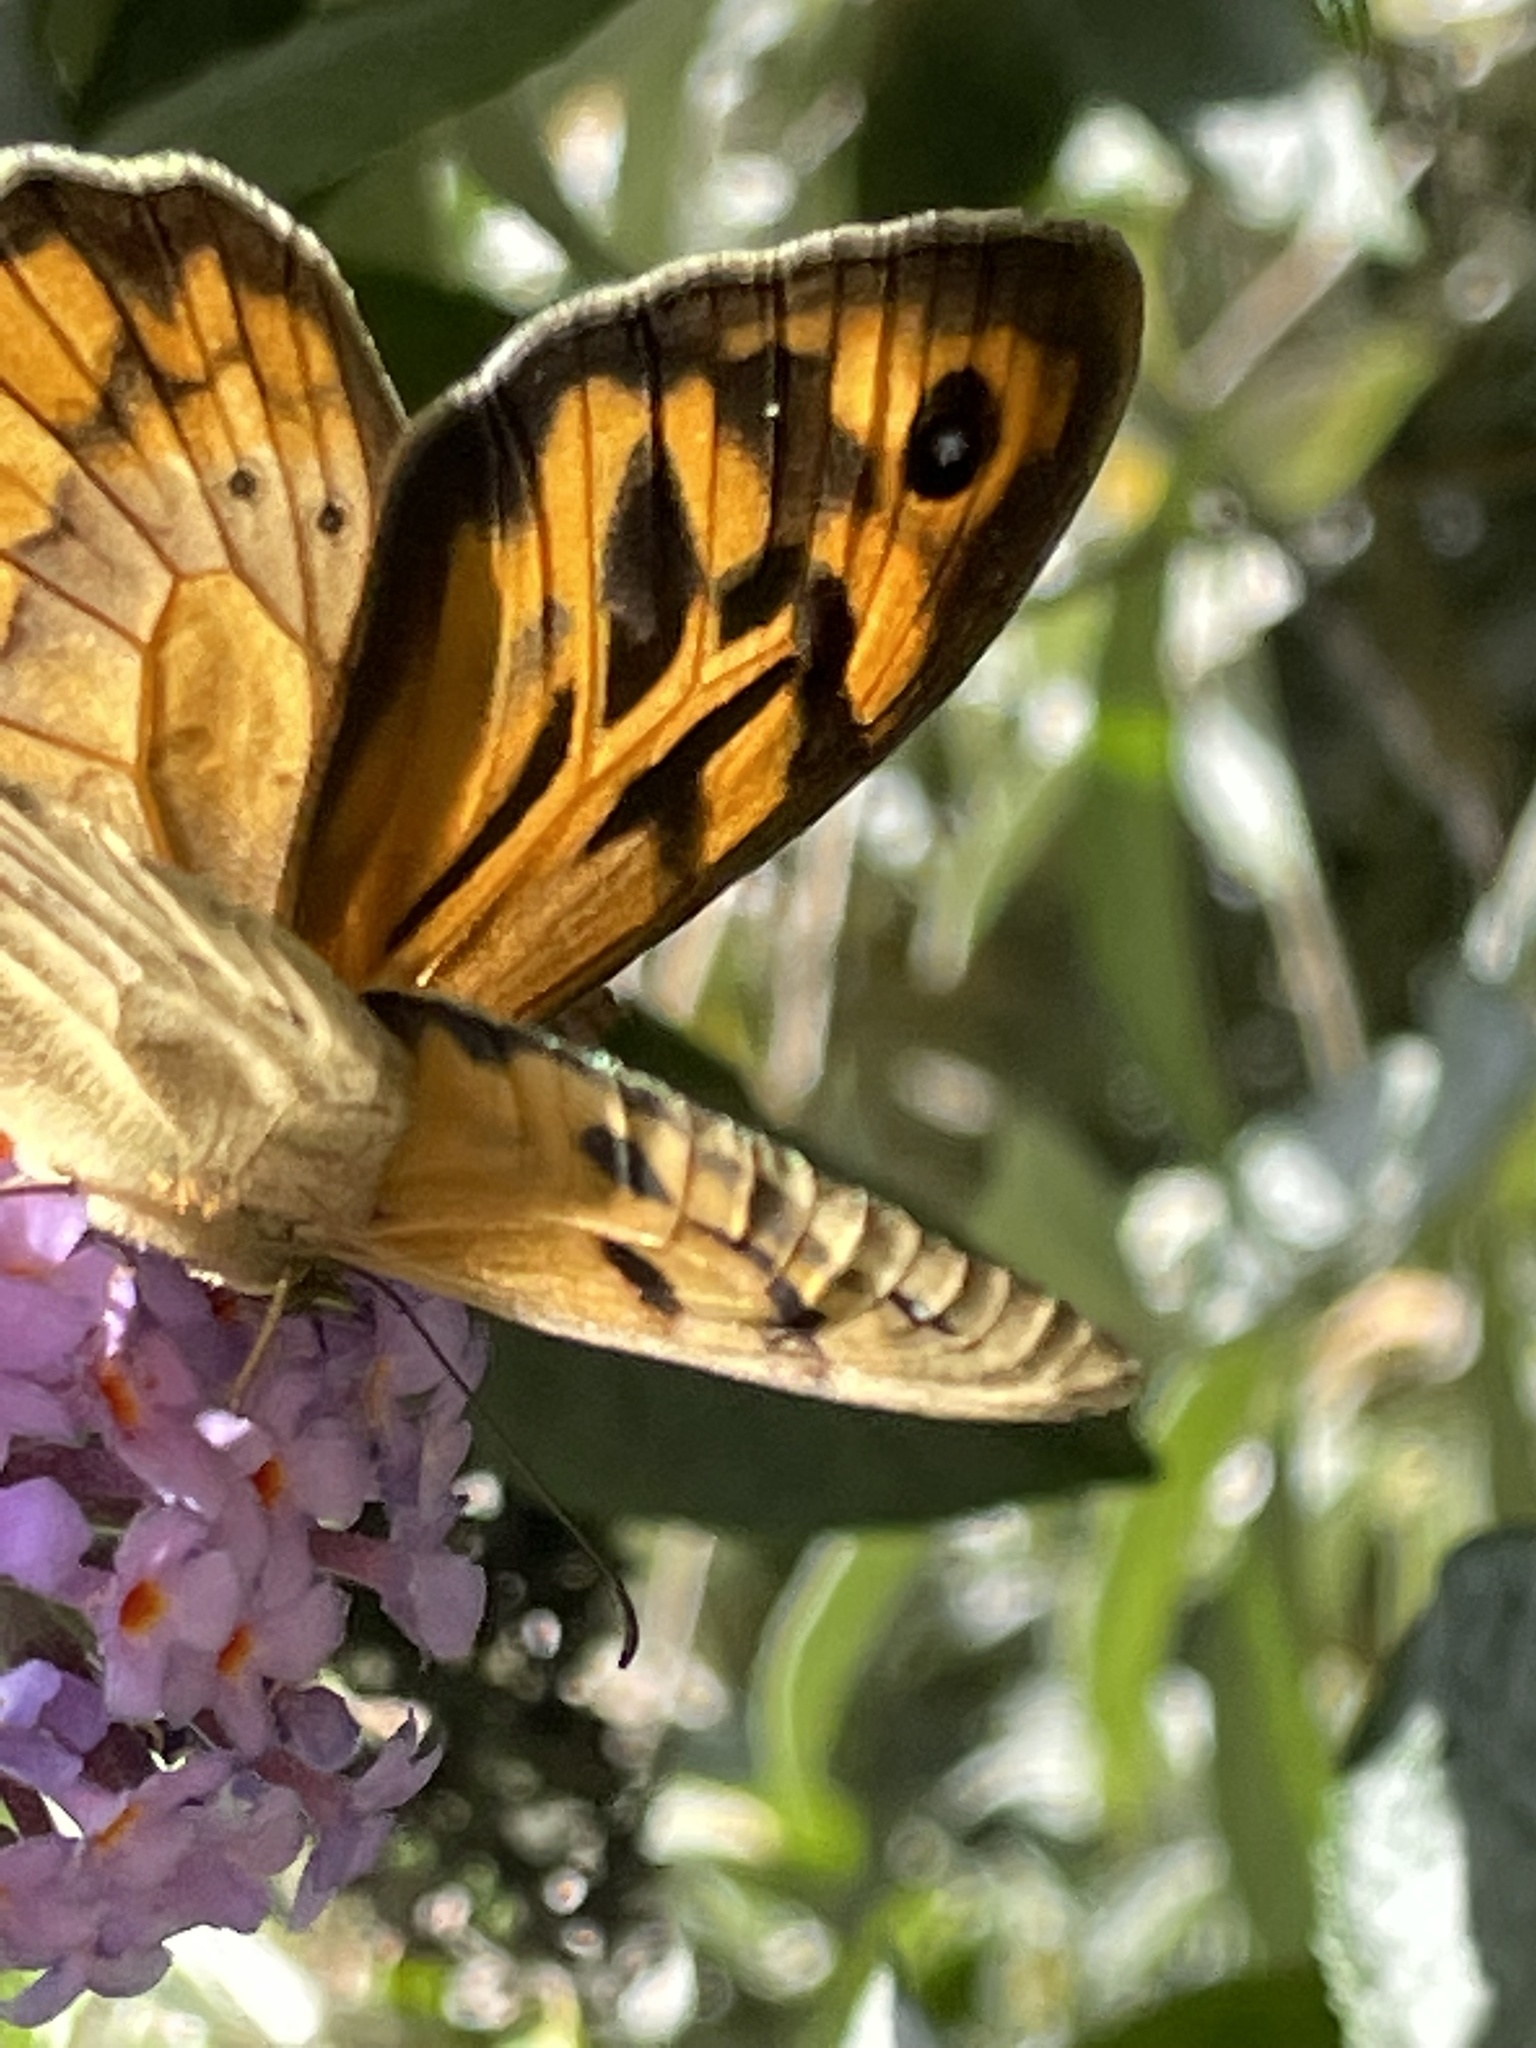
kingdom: Animalia
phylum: Arthropoda
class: Insecta
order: Lepidoptera
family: Nymphalidae
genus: Heteronympha
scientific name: Heteronympha merope
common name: Common brown
